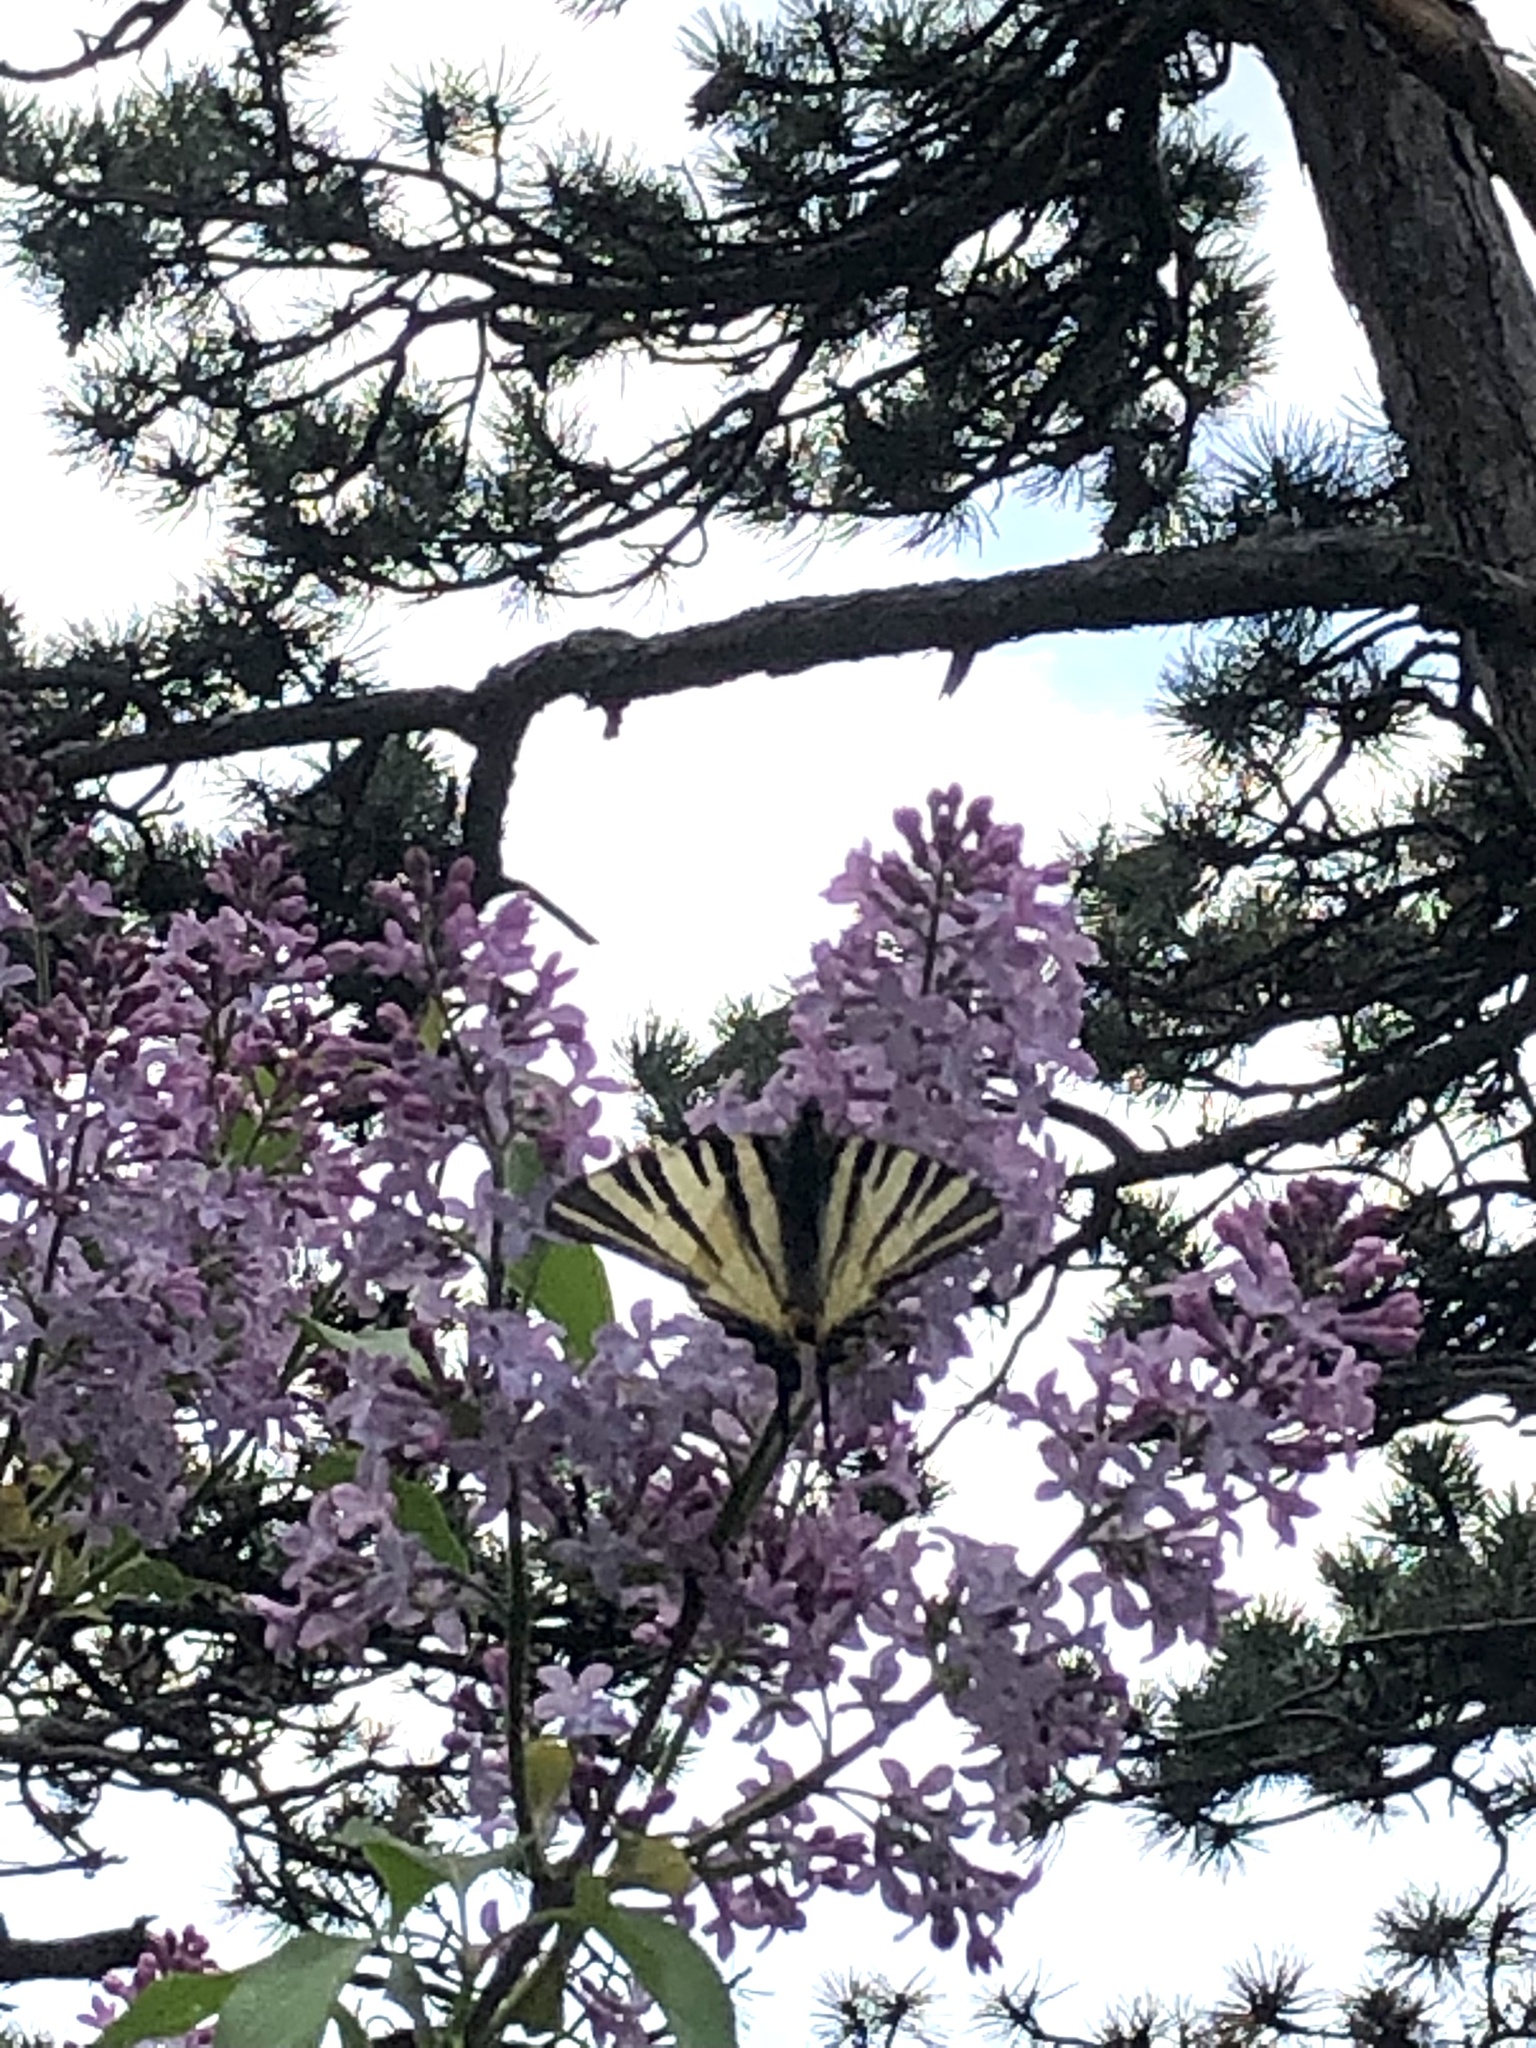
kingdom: Animalia
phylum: Arthropoda
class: Insecta
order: Lepidoptera
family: Papilionidae
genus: Iphiclides
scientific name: Iphiclides podalirius
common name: Scarce swallowtail
